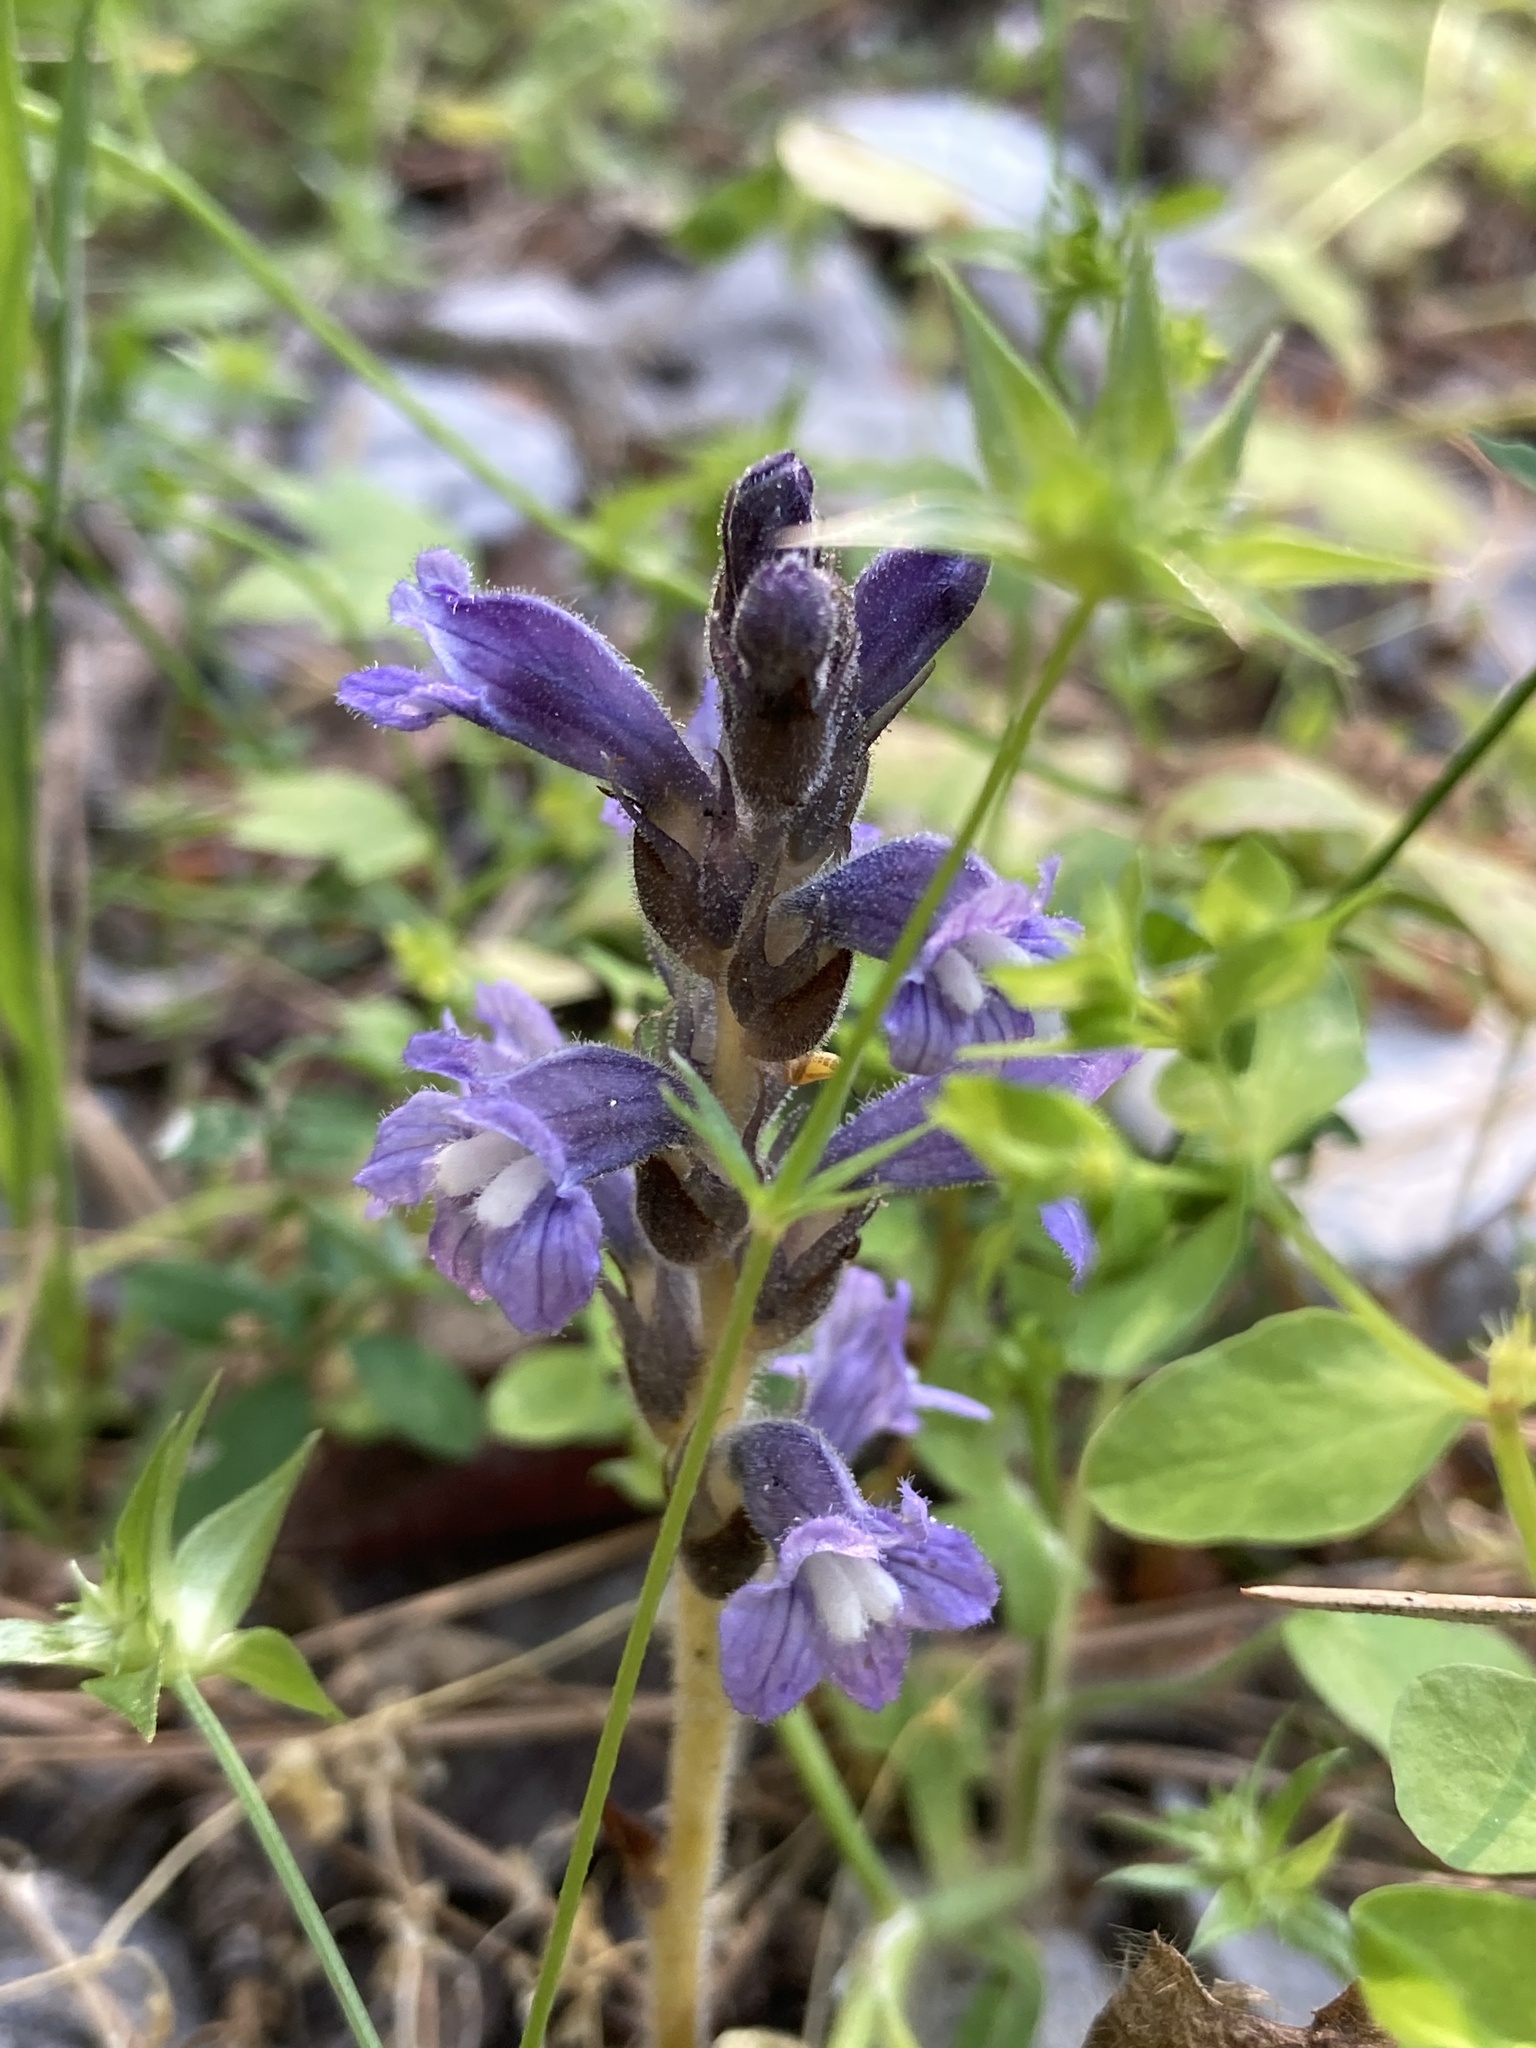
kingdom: Plantae
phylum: Tracheophyta
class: Magnoliopsida
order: Lamiales
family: Orobanchaceae
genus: Phelipanche
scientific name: Phelipanche mutelii
